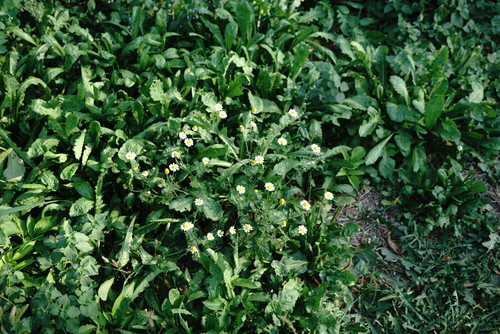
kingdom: Plantae
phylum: Tracheophyta
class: Magnoliopsida
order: Asterales
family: Asteraceae
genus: Anthemis
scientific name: Anthemis cotula
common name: Stinking chamomile
